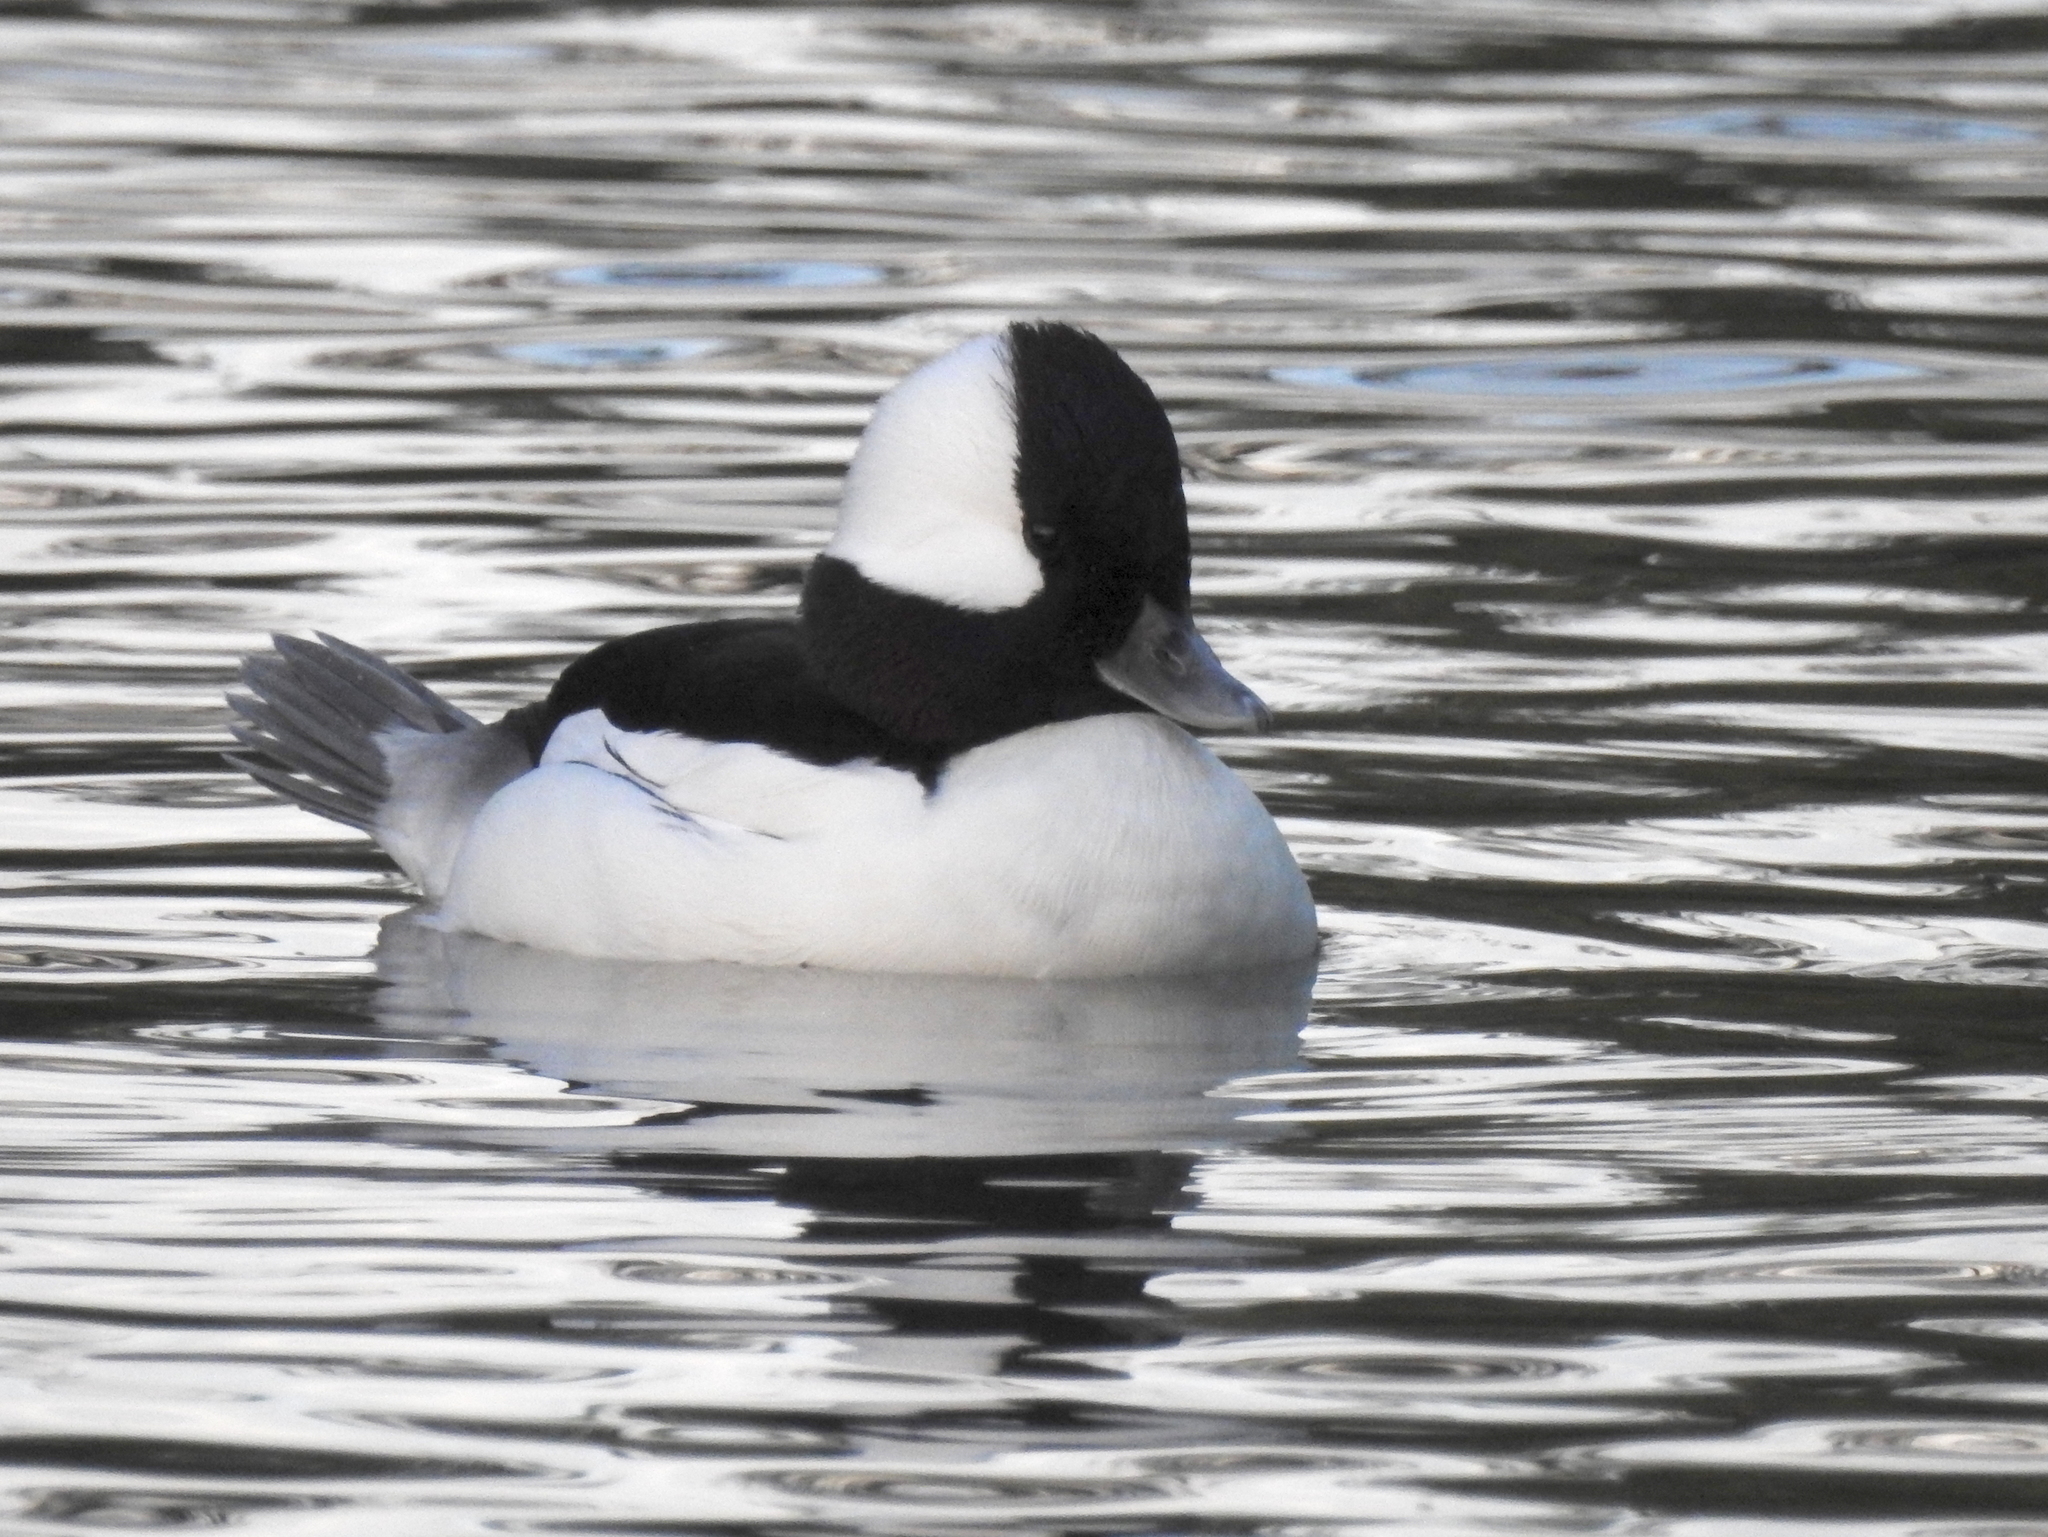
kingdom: Animalia
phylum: Chordata
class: Aves
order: Anseriformes
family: Anatidae
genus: Bucephala
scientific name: Bucephala albeola
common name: Bufflehead
